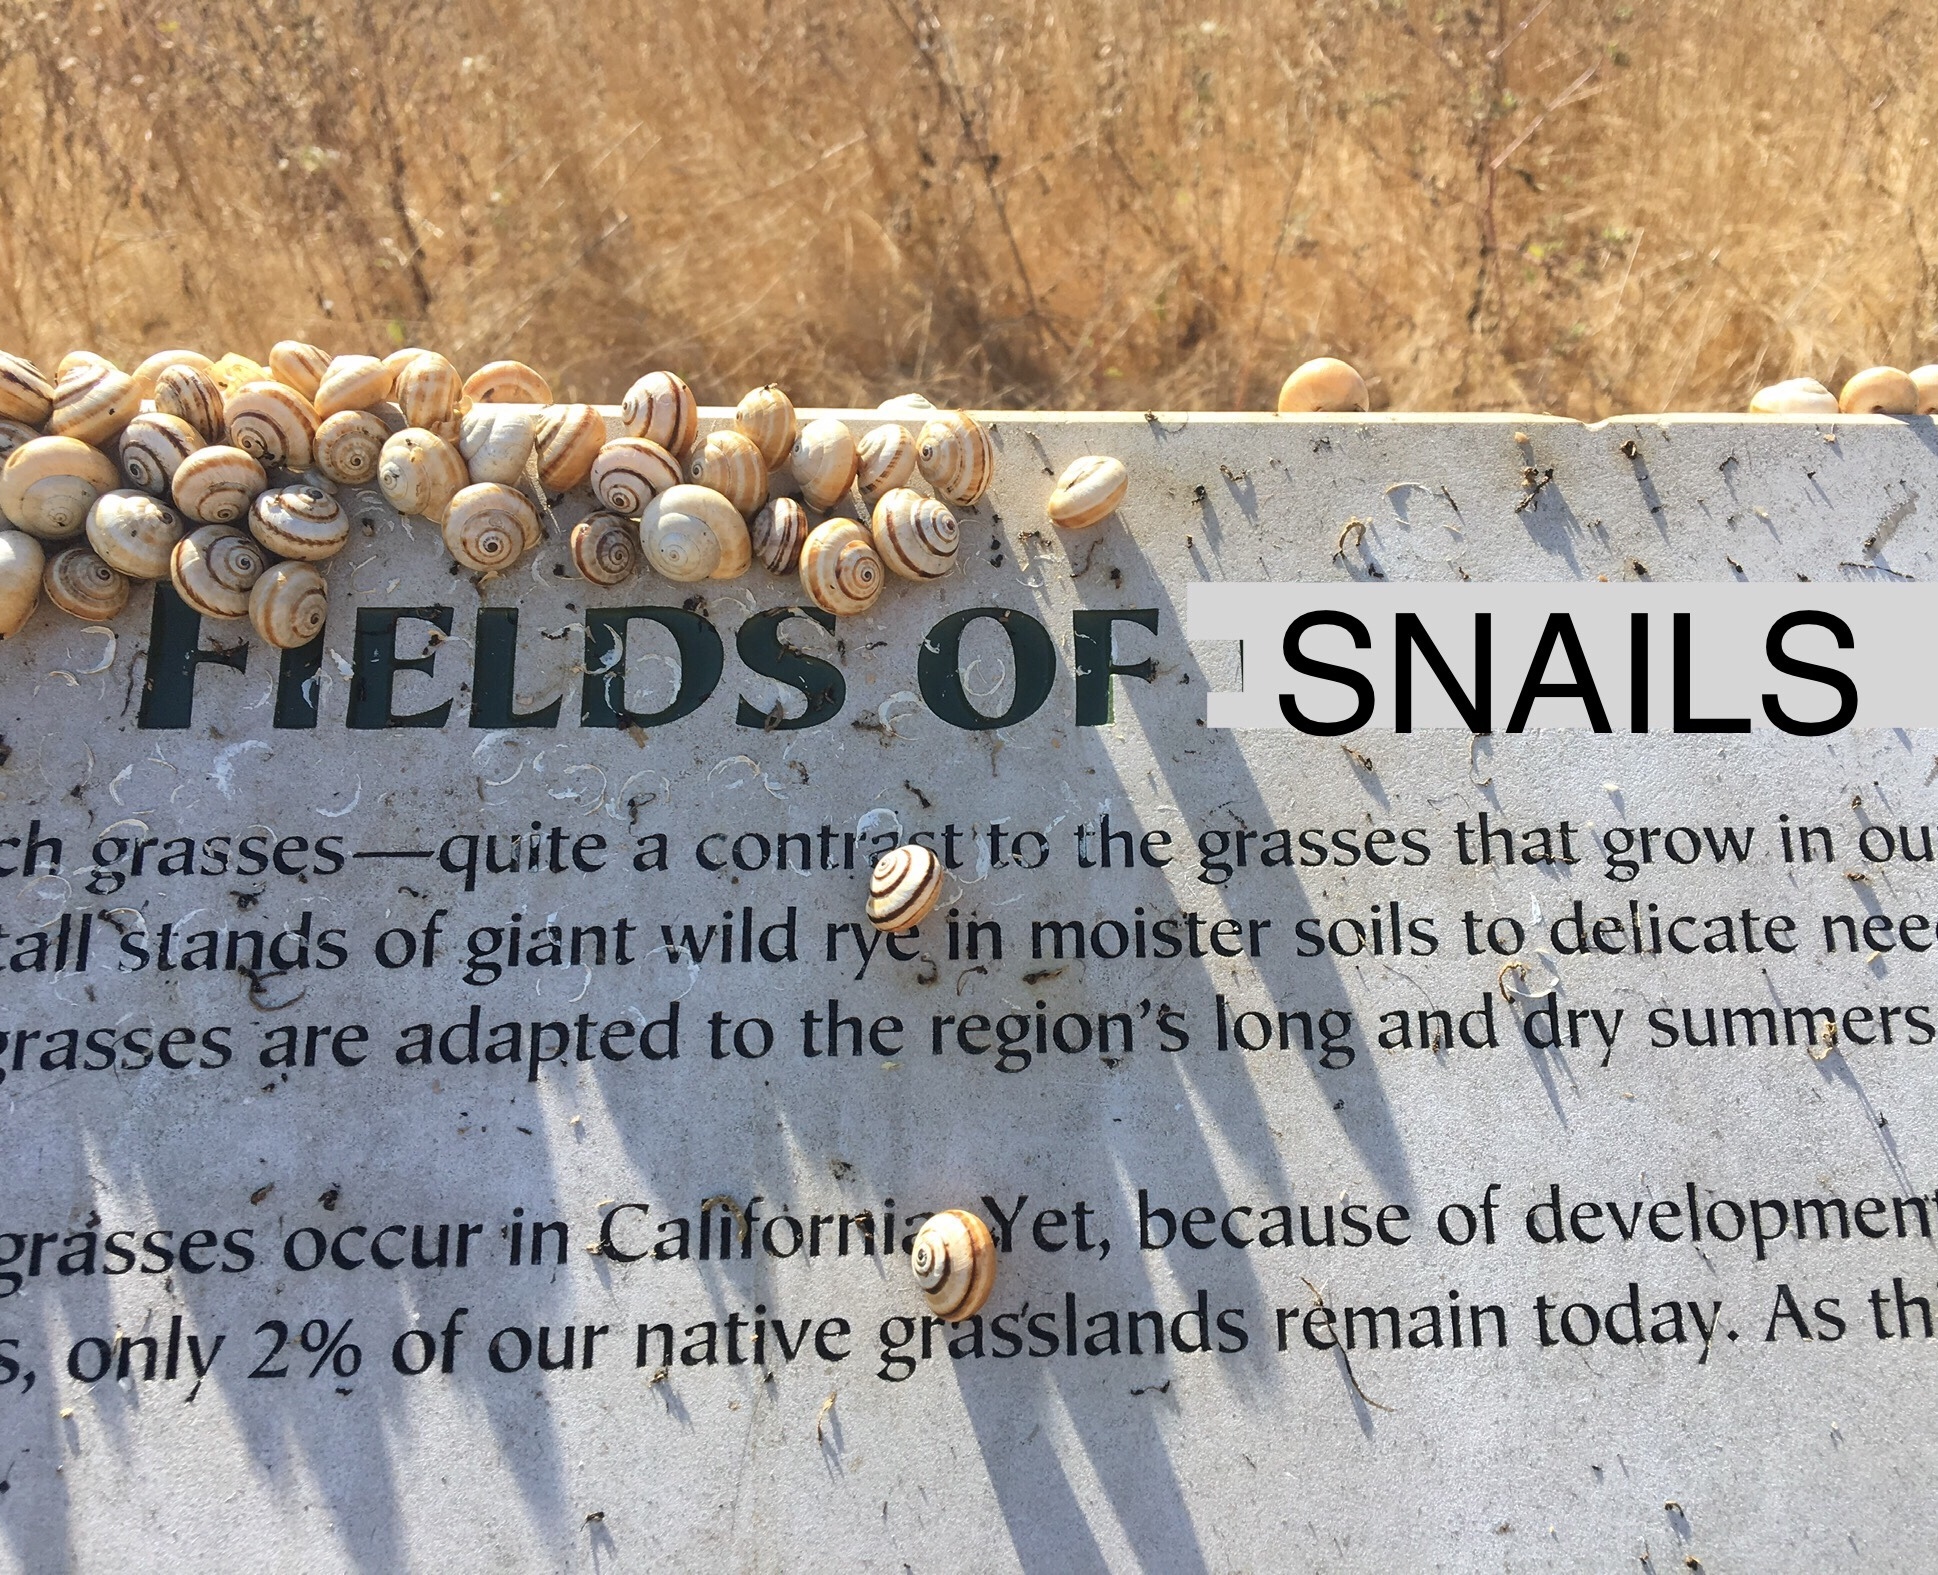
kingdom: Animalia
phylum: Mollusca
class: Gastropoda
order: Stylommatophora
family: Helicidae
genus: Theba
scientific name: Theba pisana
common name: White snail
